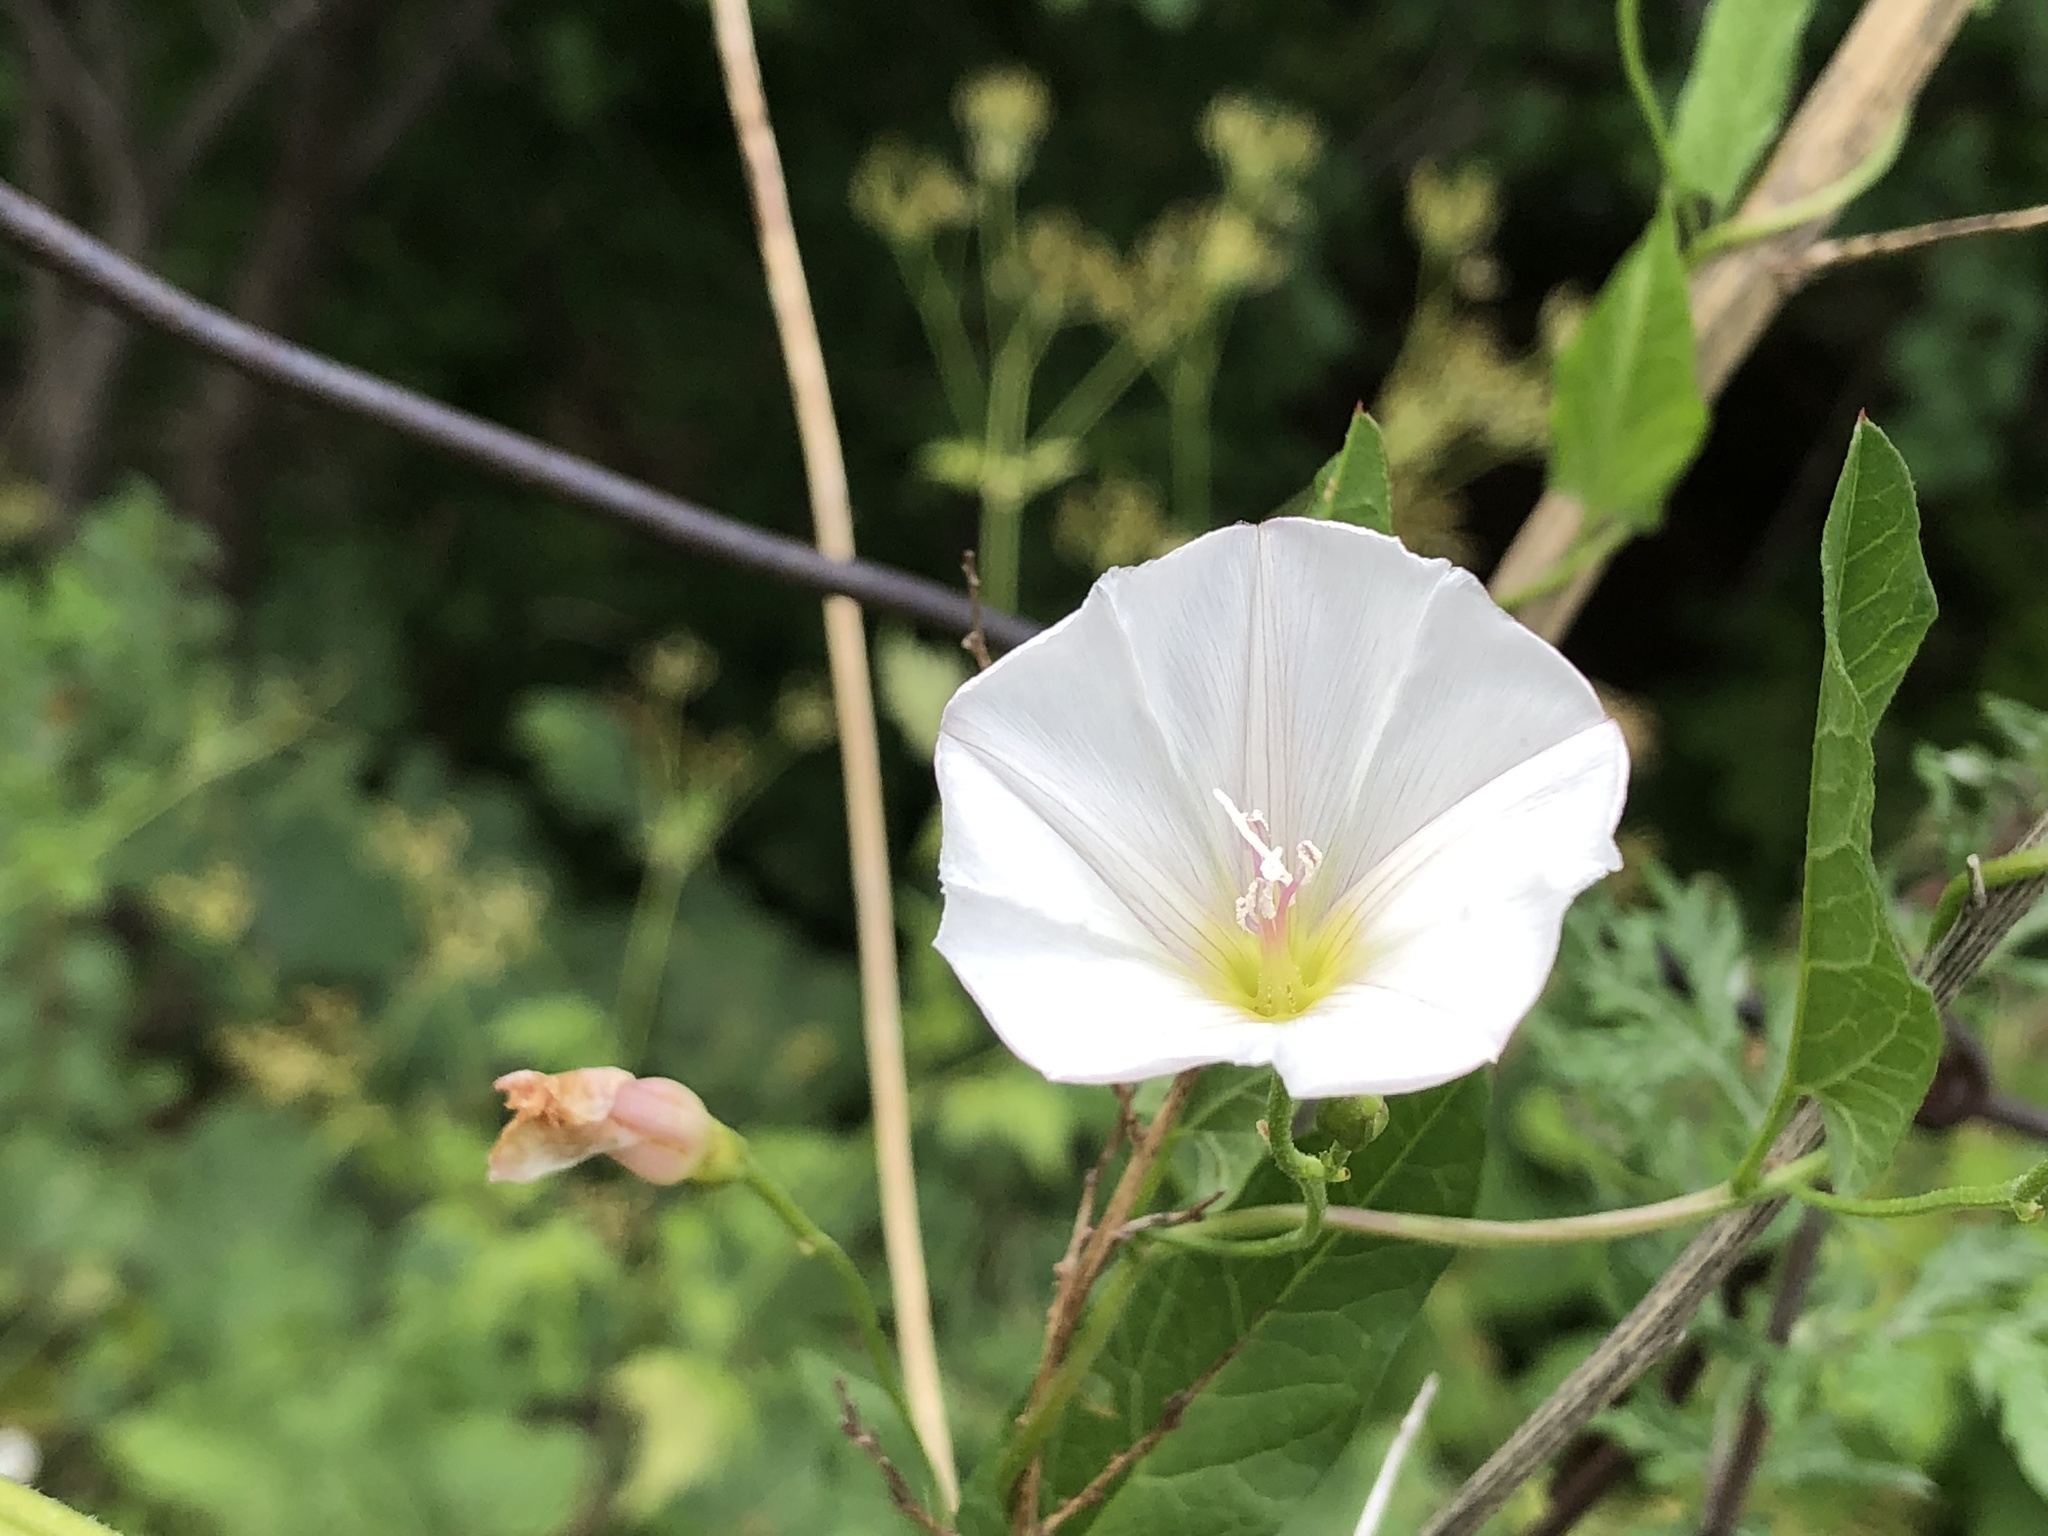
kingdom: Plantae
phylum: Tracheophyta
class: Magnoliopsida
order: Solanales
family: Convolvulaceae
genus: Calystegia
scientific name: Calystegia sepium
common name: Hedge bindweed
